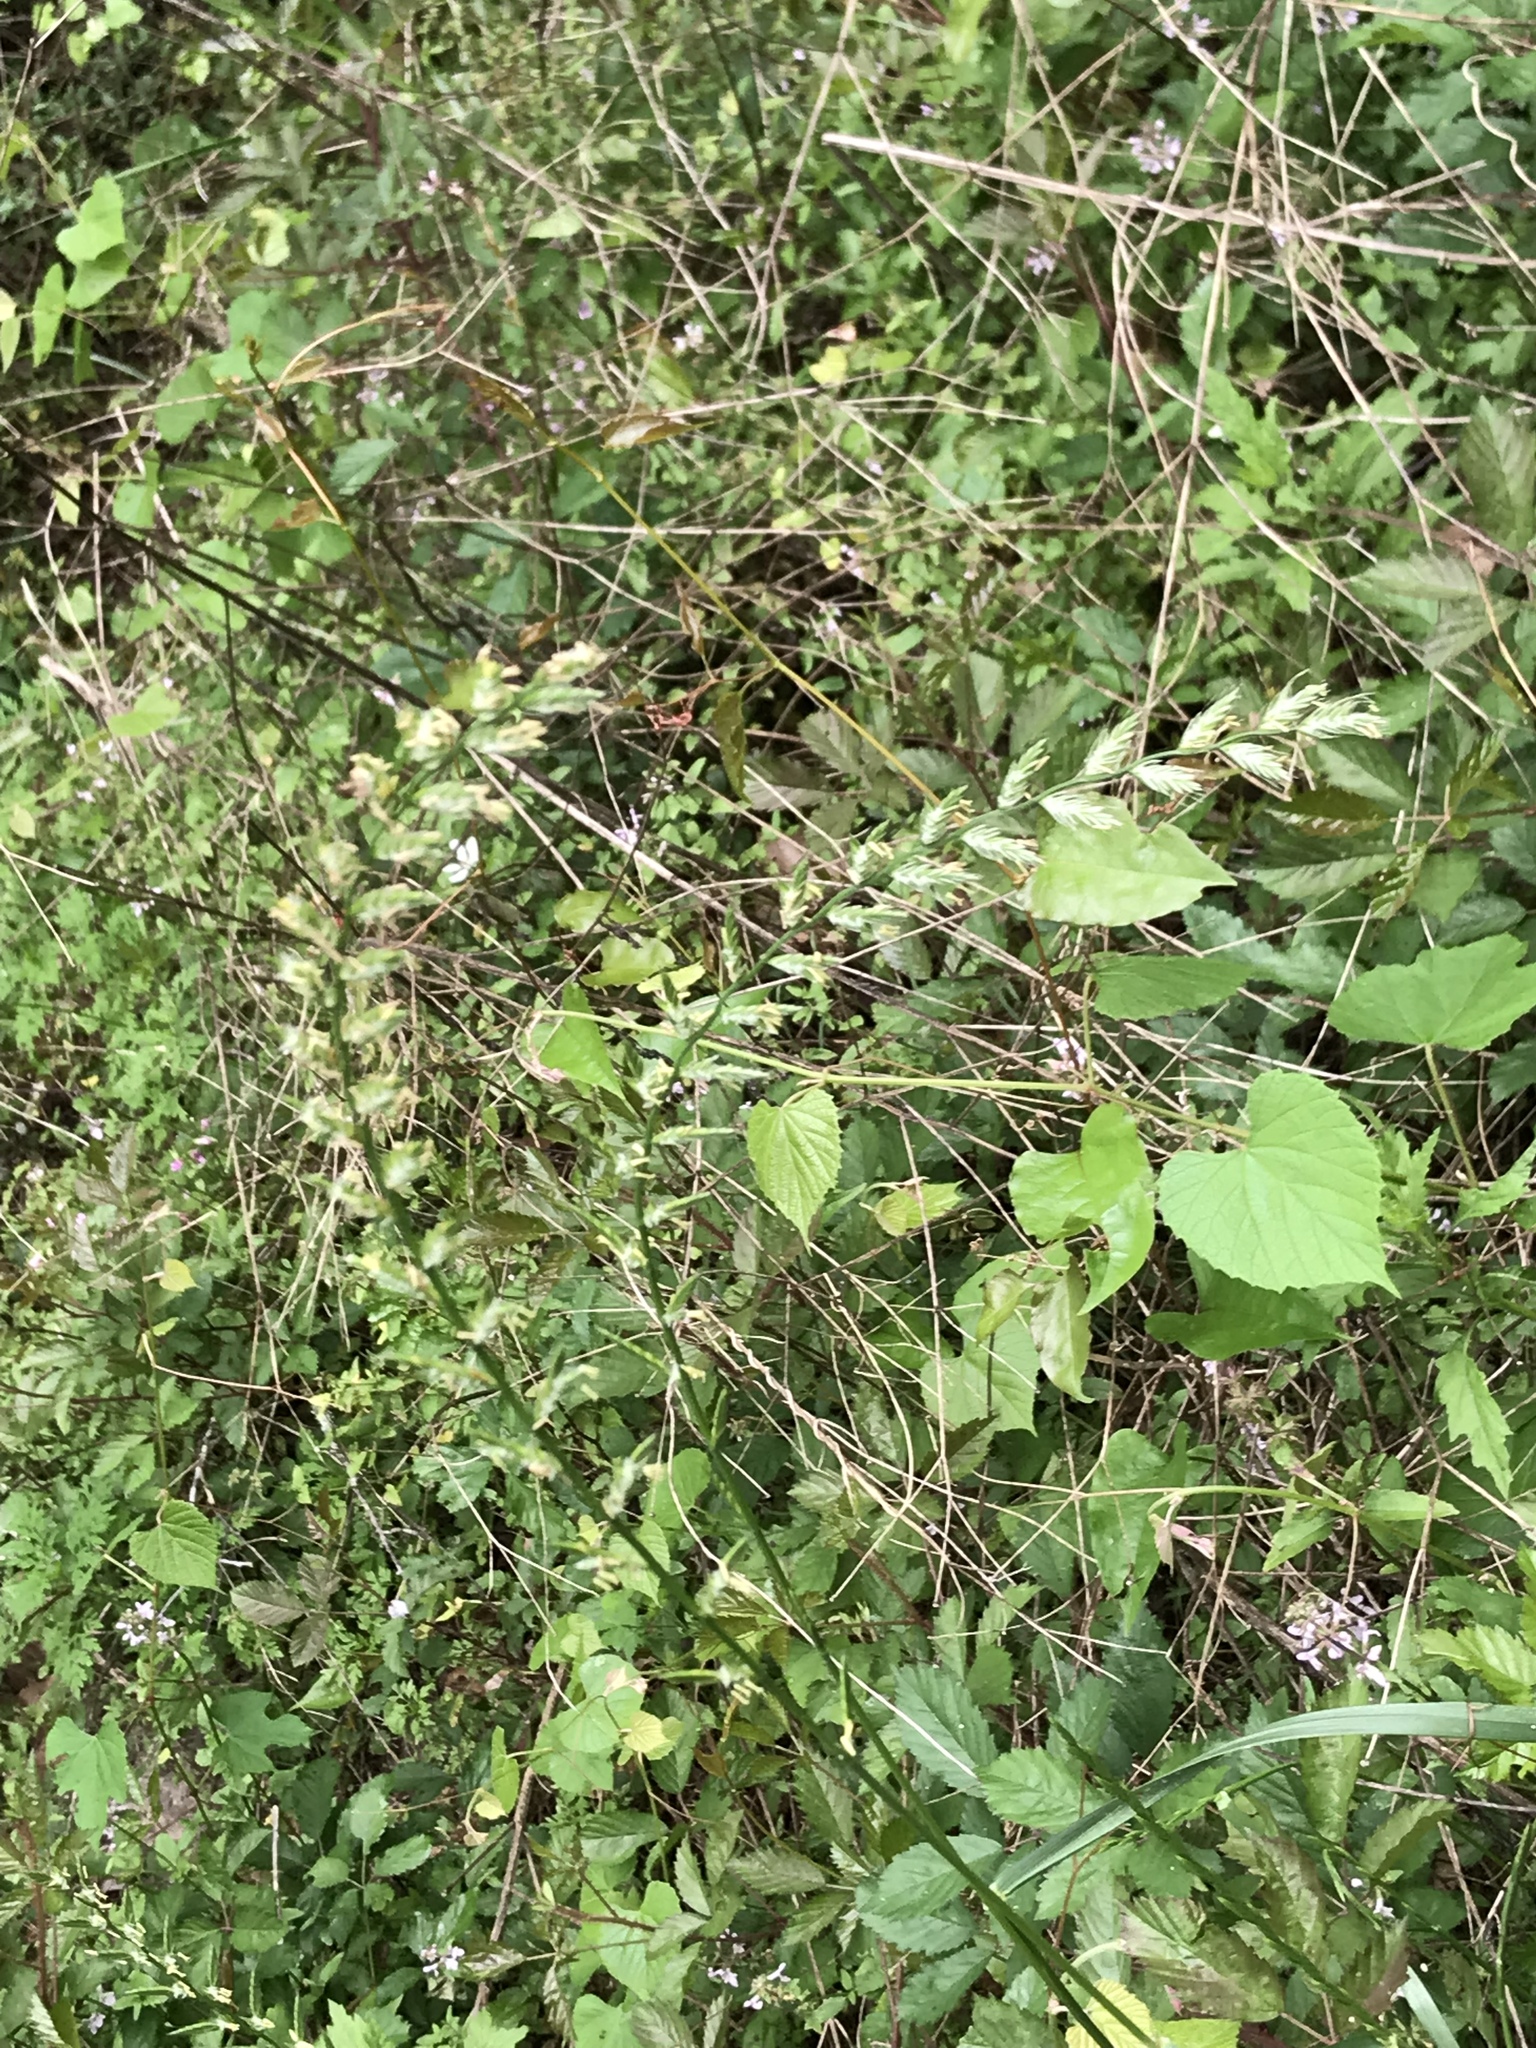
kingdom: Plantae
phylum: Tracheophyta
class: Liliopsida
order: Poales
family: Poaceae
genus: Lolium
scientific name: Lolium multiflorum
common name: Annual ryegrass
